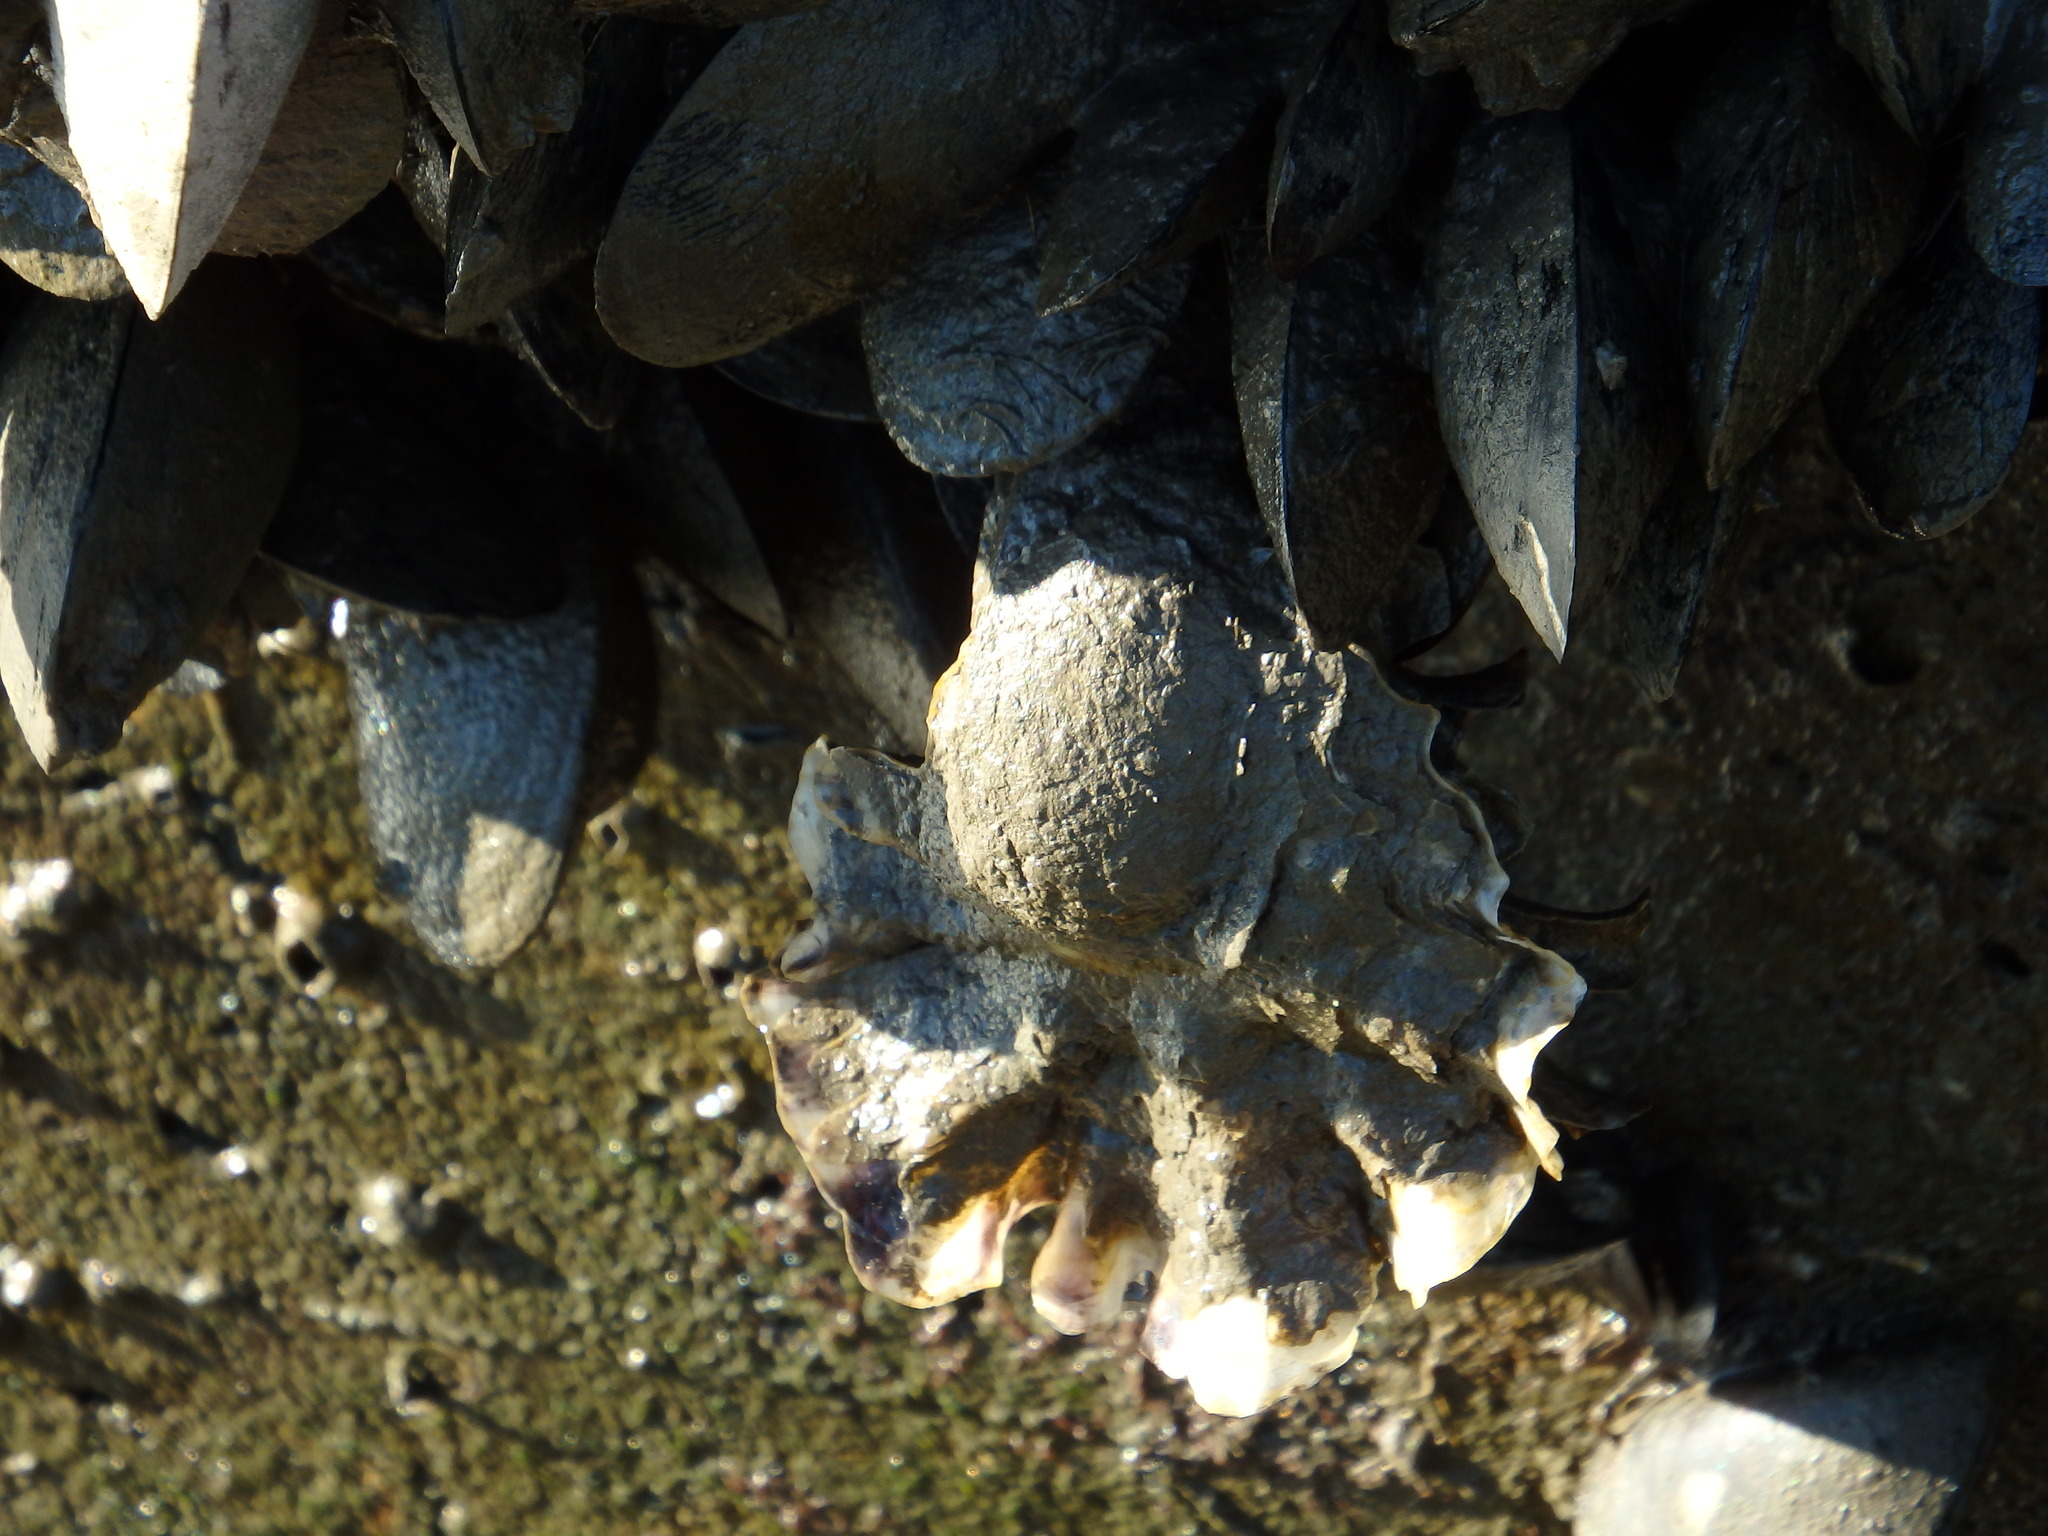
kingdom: Animalia
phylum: Mollusca
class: Bivalvia
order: Ostreida
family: Ostreidae
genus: Magallana
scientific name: Magallana gigas
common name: Pacific oyster
